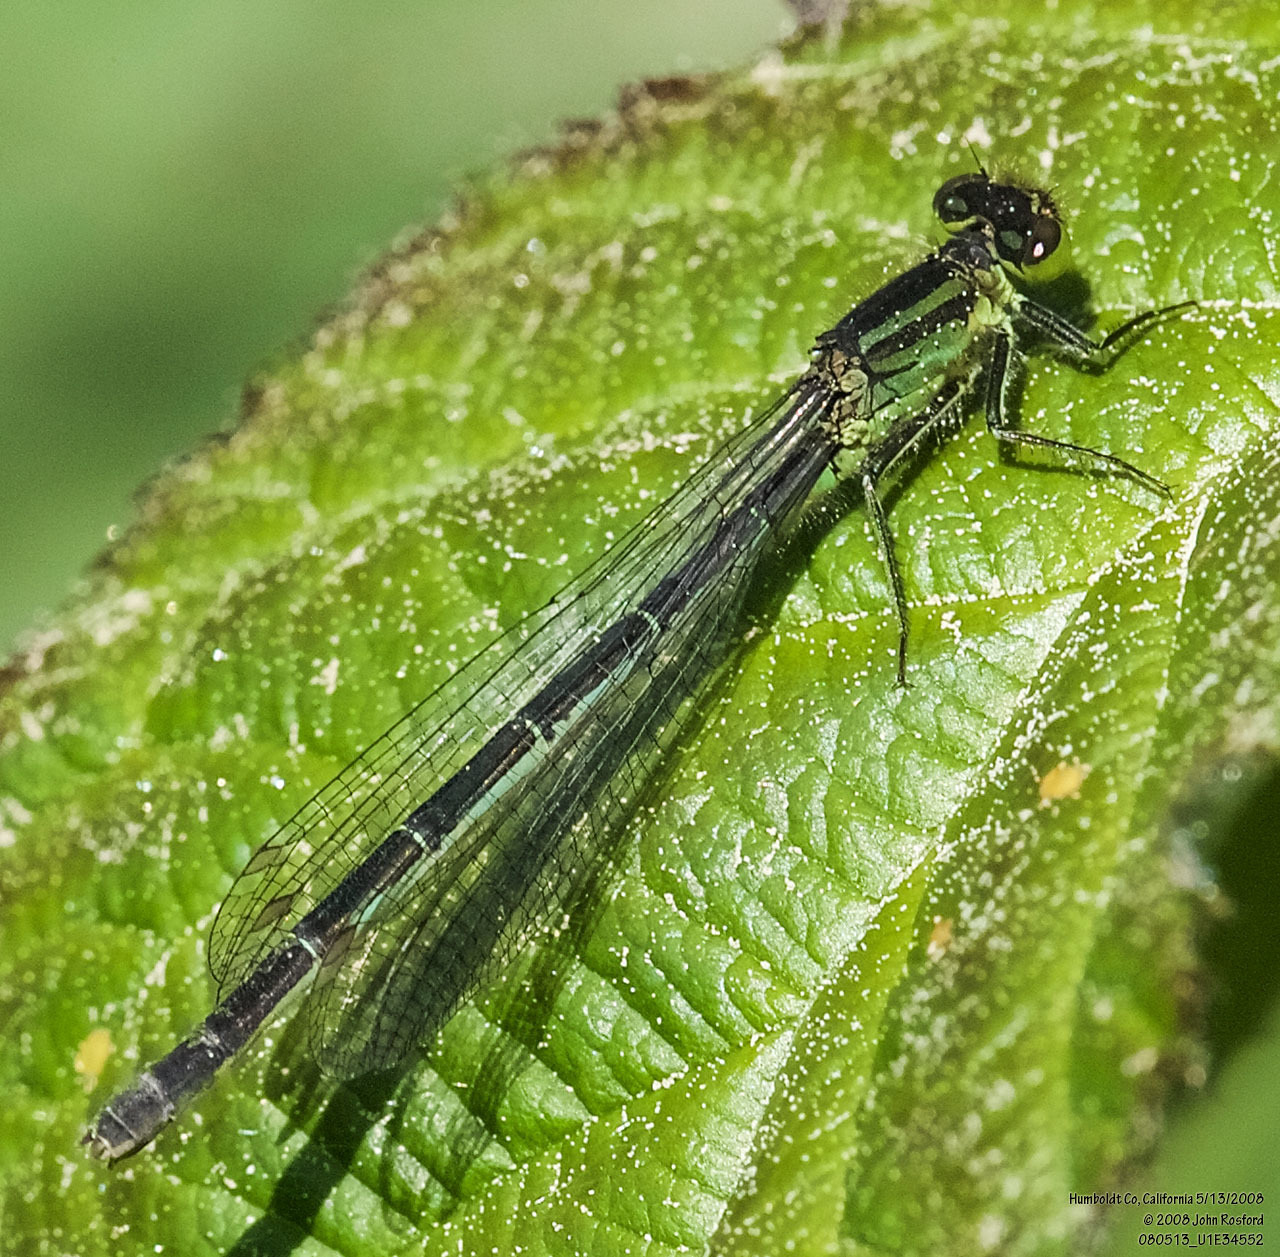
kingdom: Animalia
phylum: Arthropoda
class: Insecta
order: Odonata
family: Coenagrionidae
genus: Ischnura
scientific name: Ischnura erratica
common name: Swift forktail
